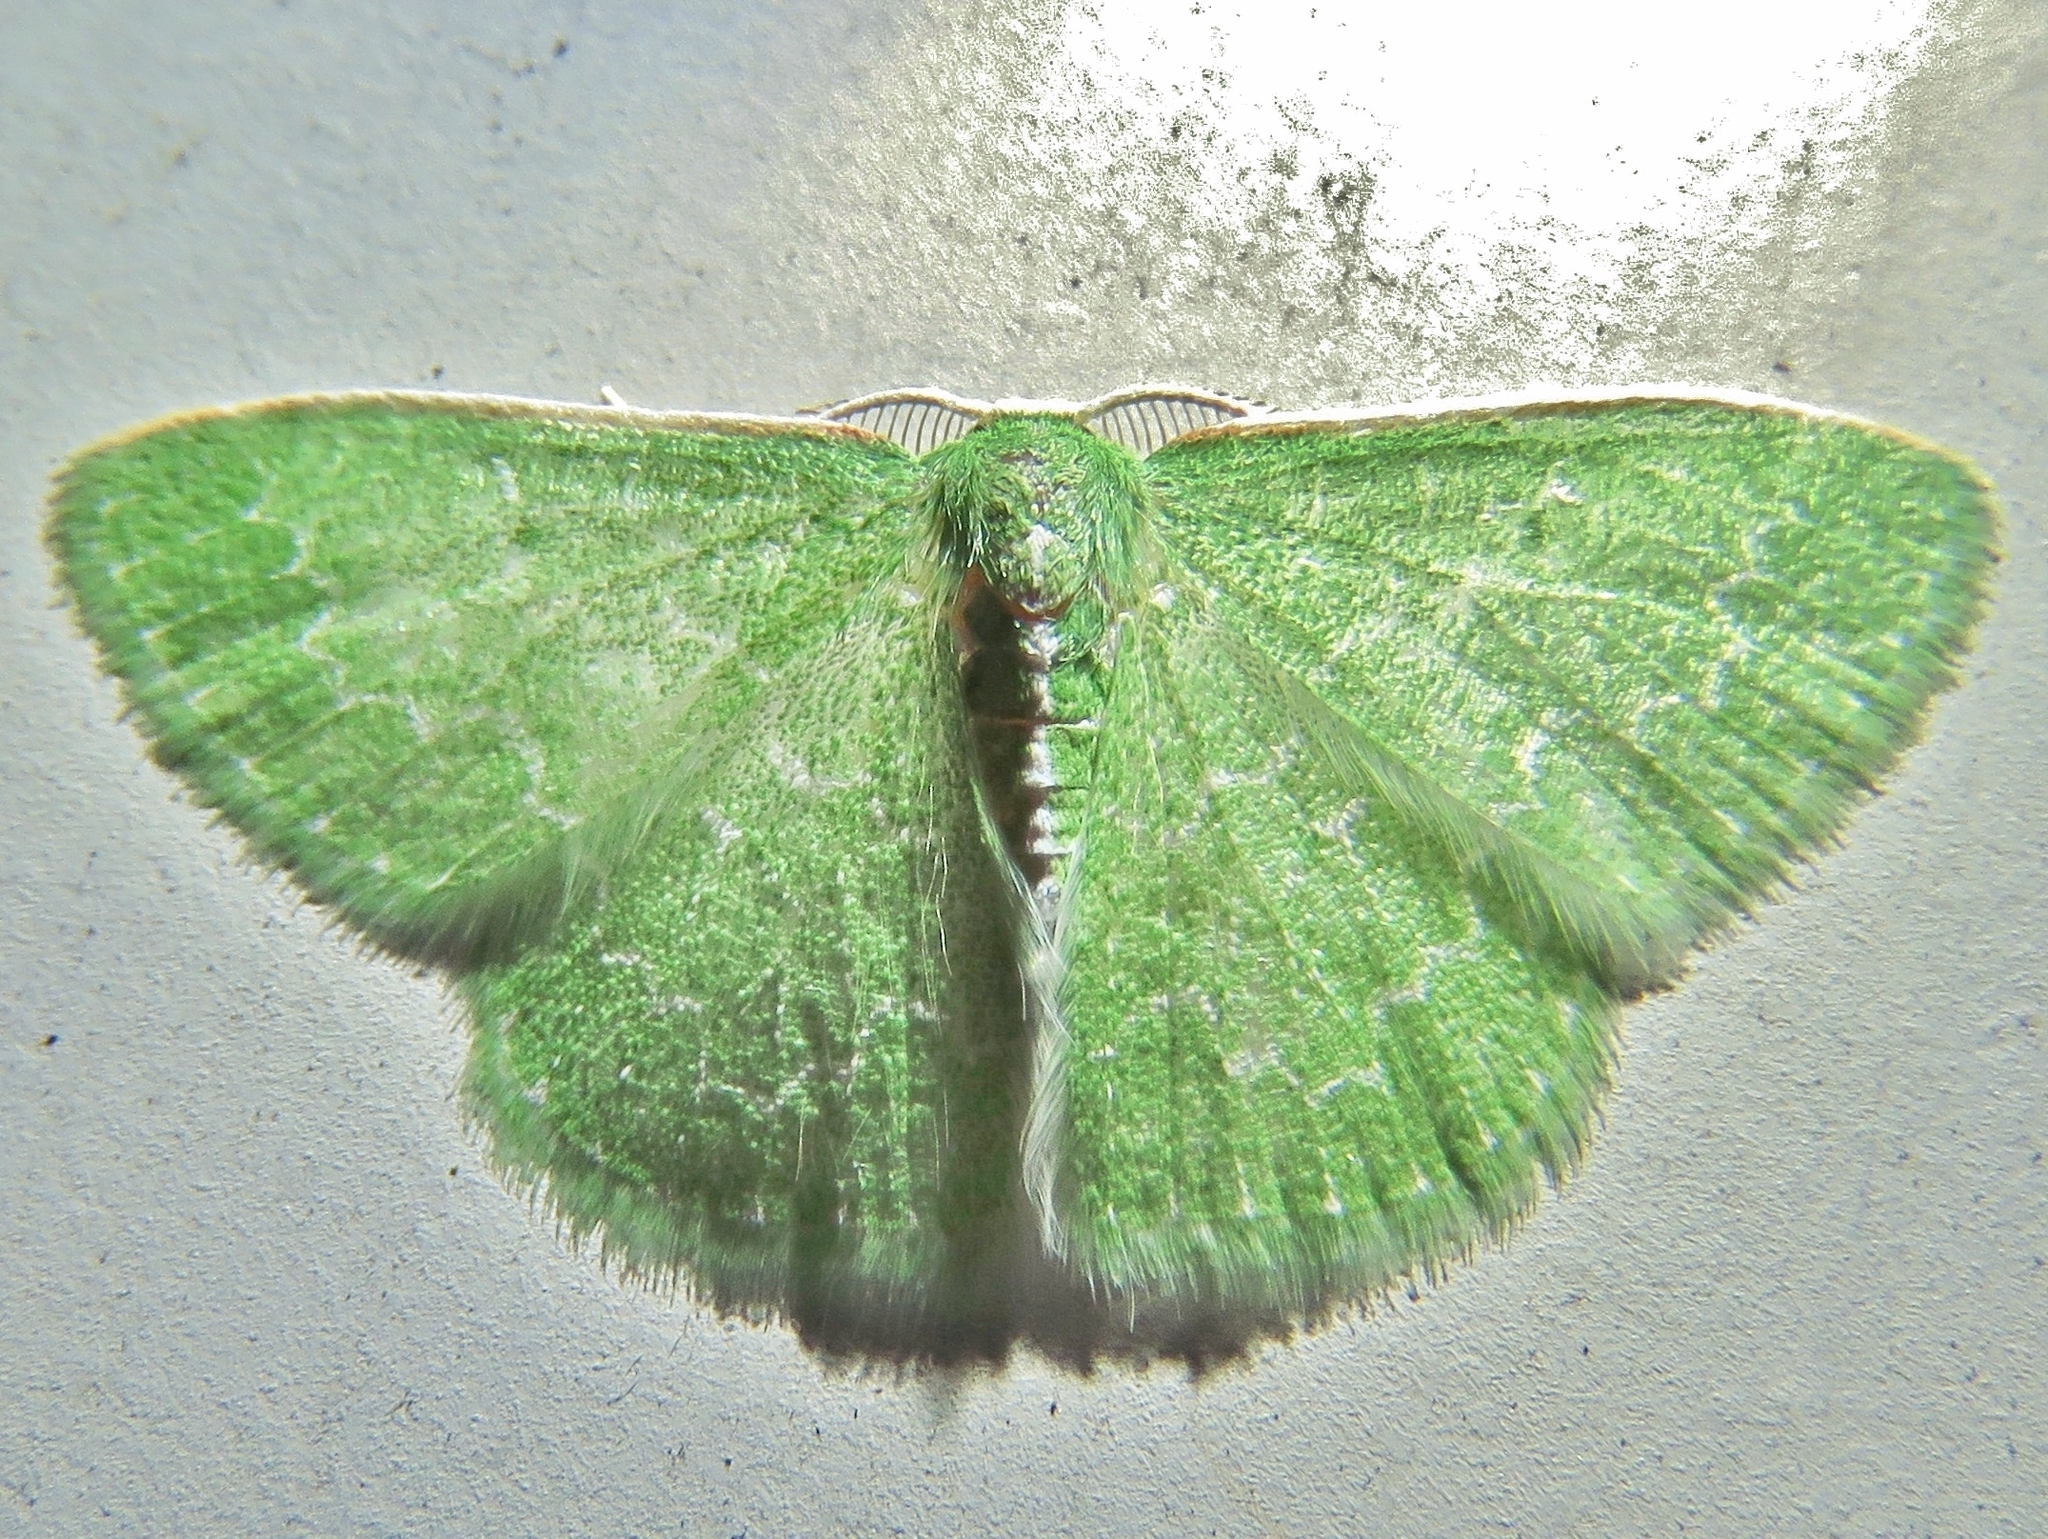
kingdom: Animalia
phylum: Arthropoda
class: Insecta
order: Lepidoptera
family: Geometridae
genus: Synchlora
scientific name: Synchlora frondaria
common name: Southern emerald
